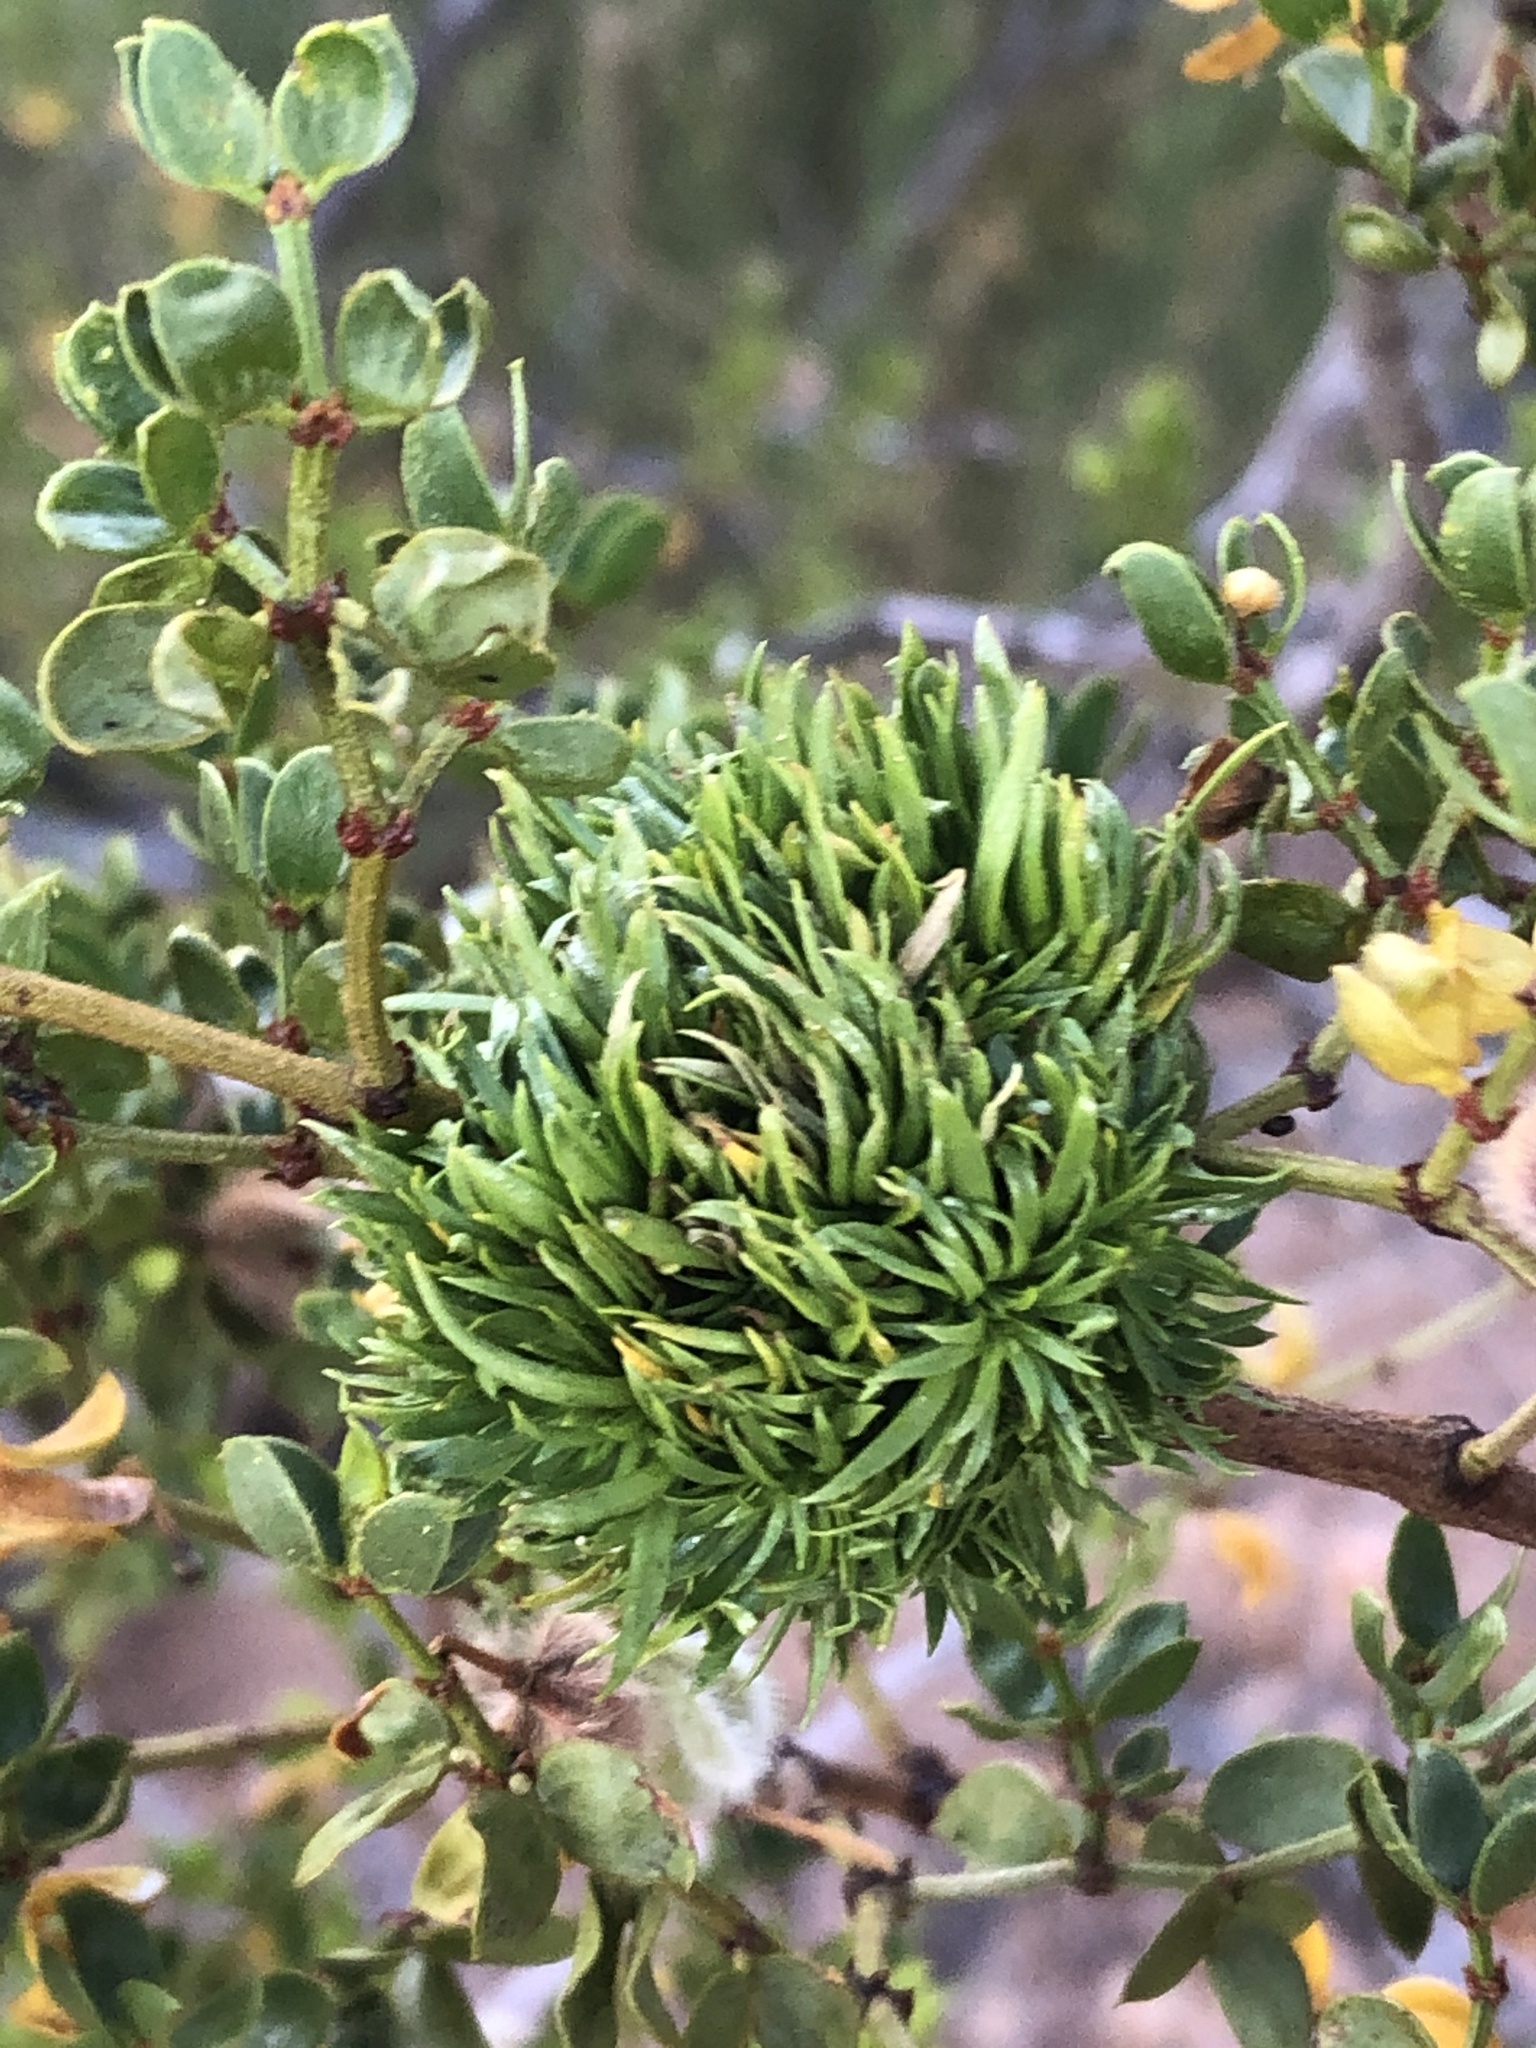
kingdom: Animalia
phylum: Arthropoda
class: Insecta
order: Diptera
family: Cecidomyiidae
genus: Asphondylia
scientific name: Asphondylia auripila
